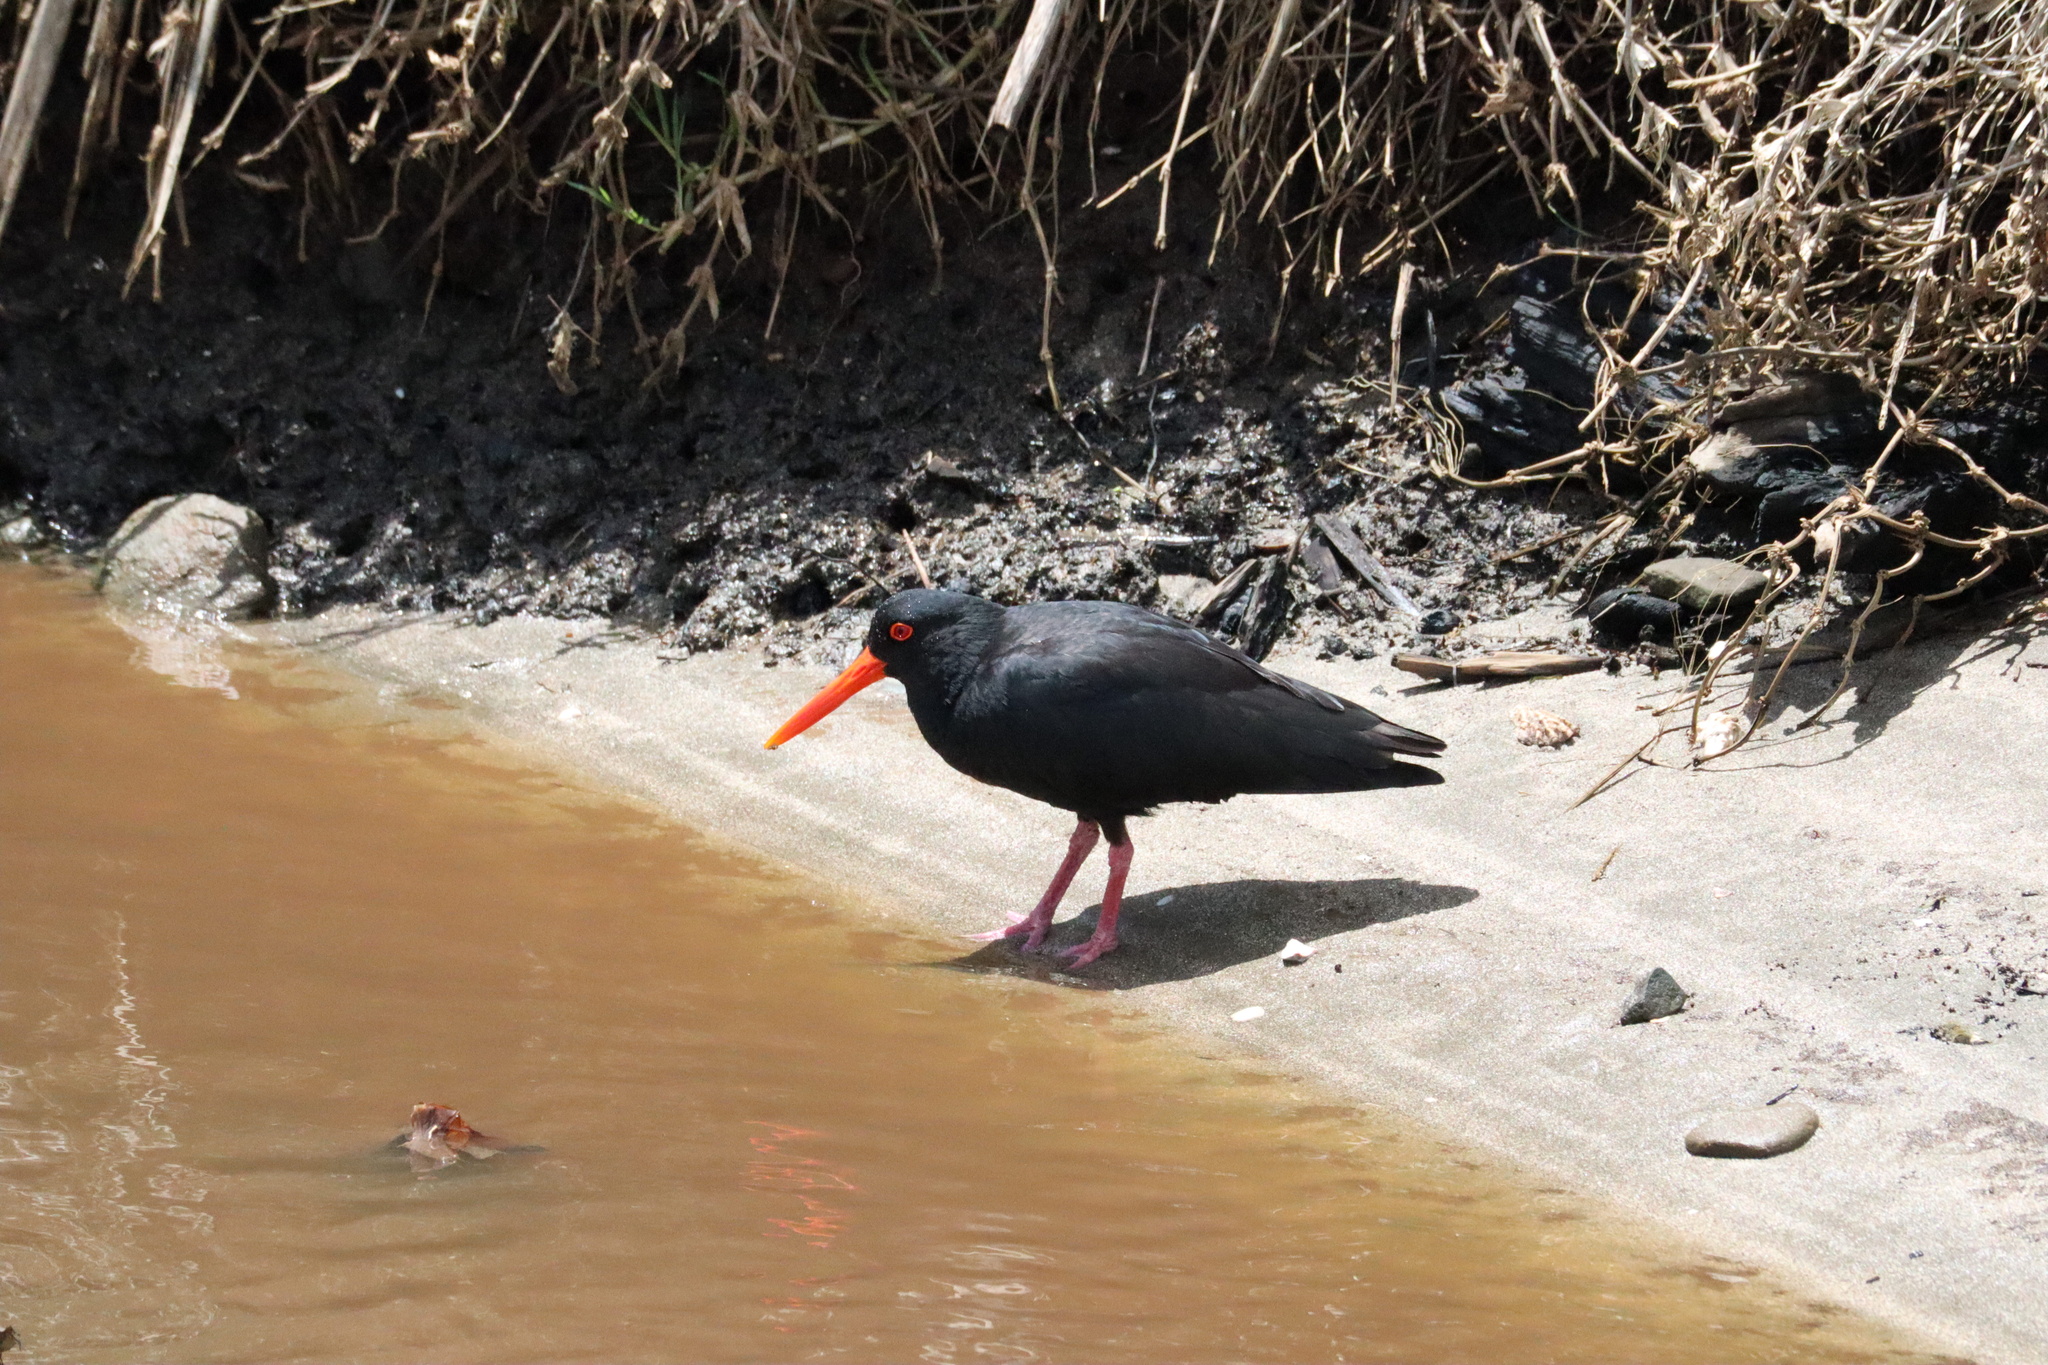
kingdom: Animalia
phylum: Chordata
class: Aves
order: Charadriiformes
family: Haematopodidae
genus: Haematopus
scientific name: Haematopus unicolor
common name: Variable oystercatcher
